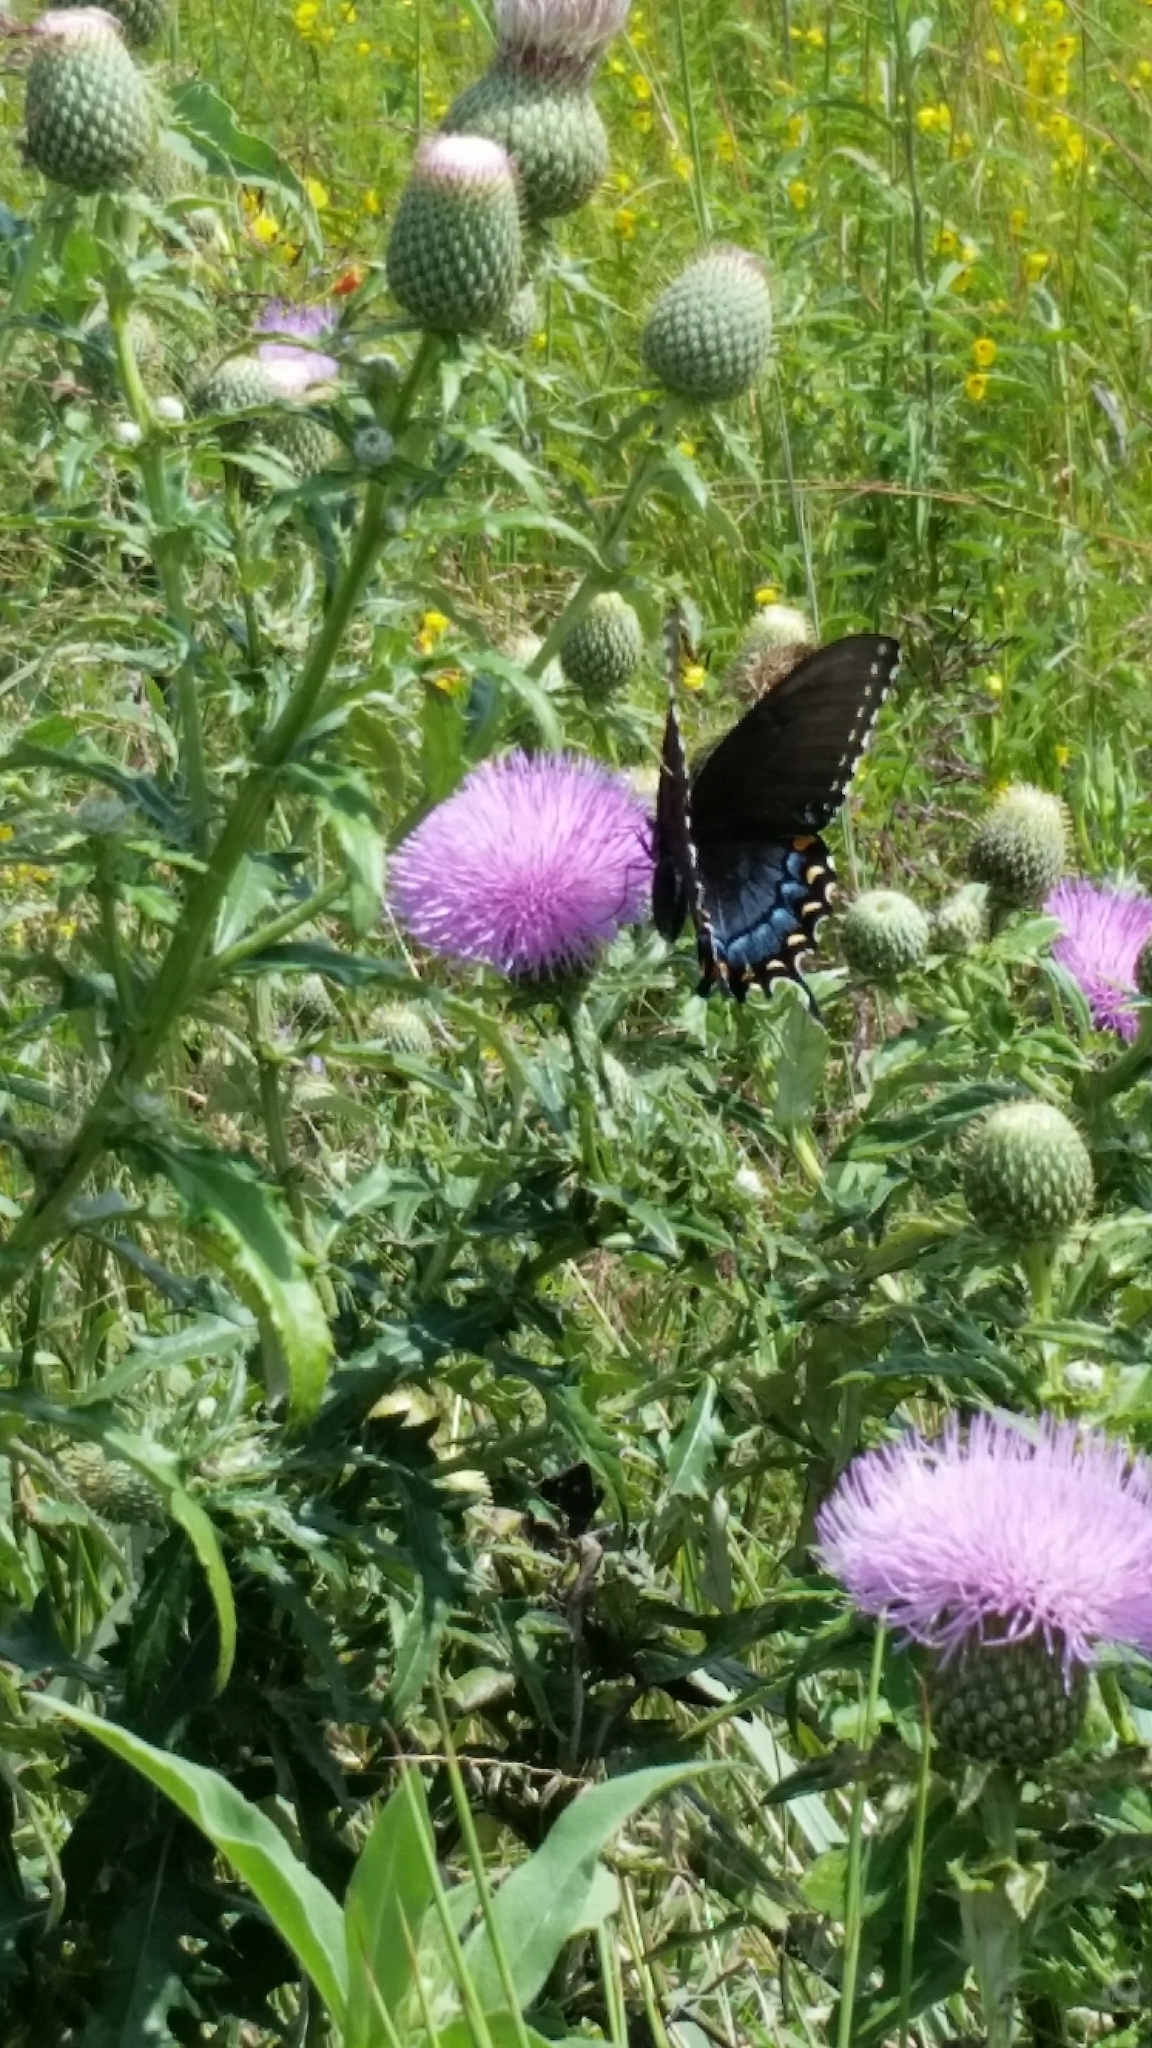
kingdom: Animalia
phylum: Arthropoda
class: Insecta
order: Lepidoptera
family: Papilionidae
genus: Papilio
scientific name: Papilio glaucus
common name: Tiger swallowtail
